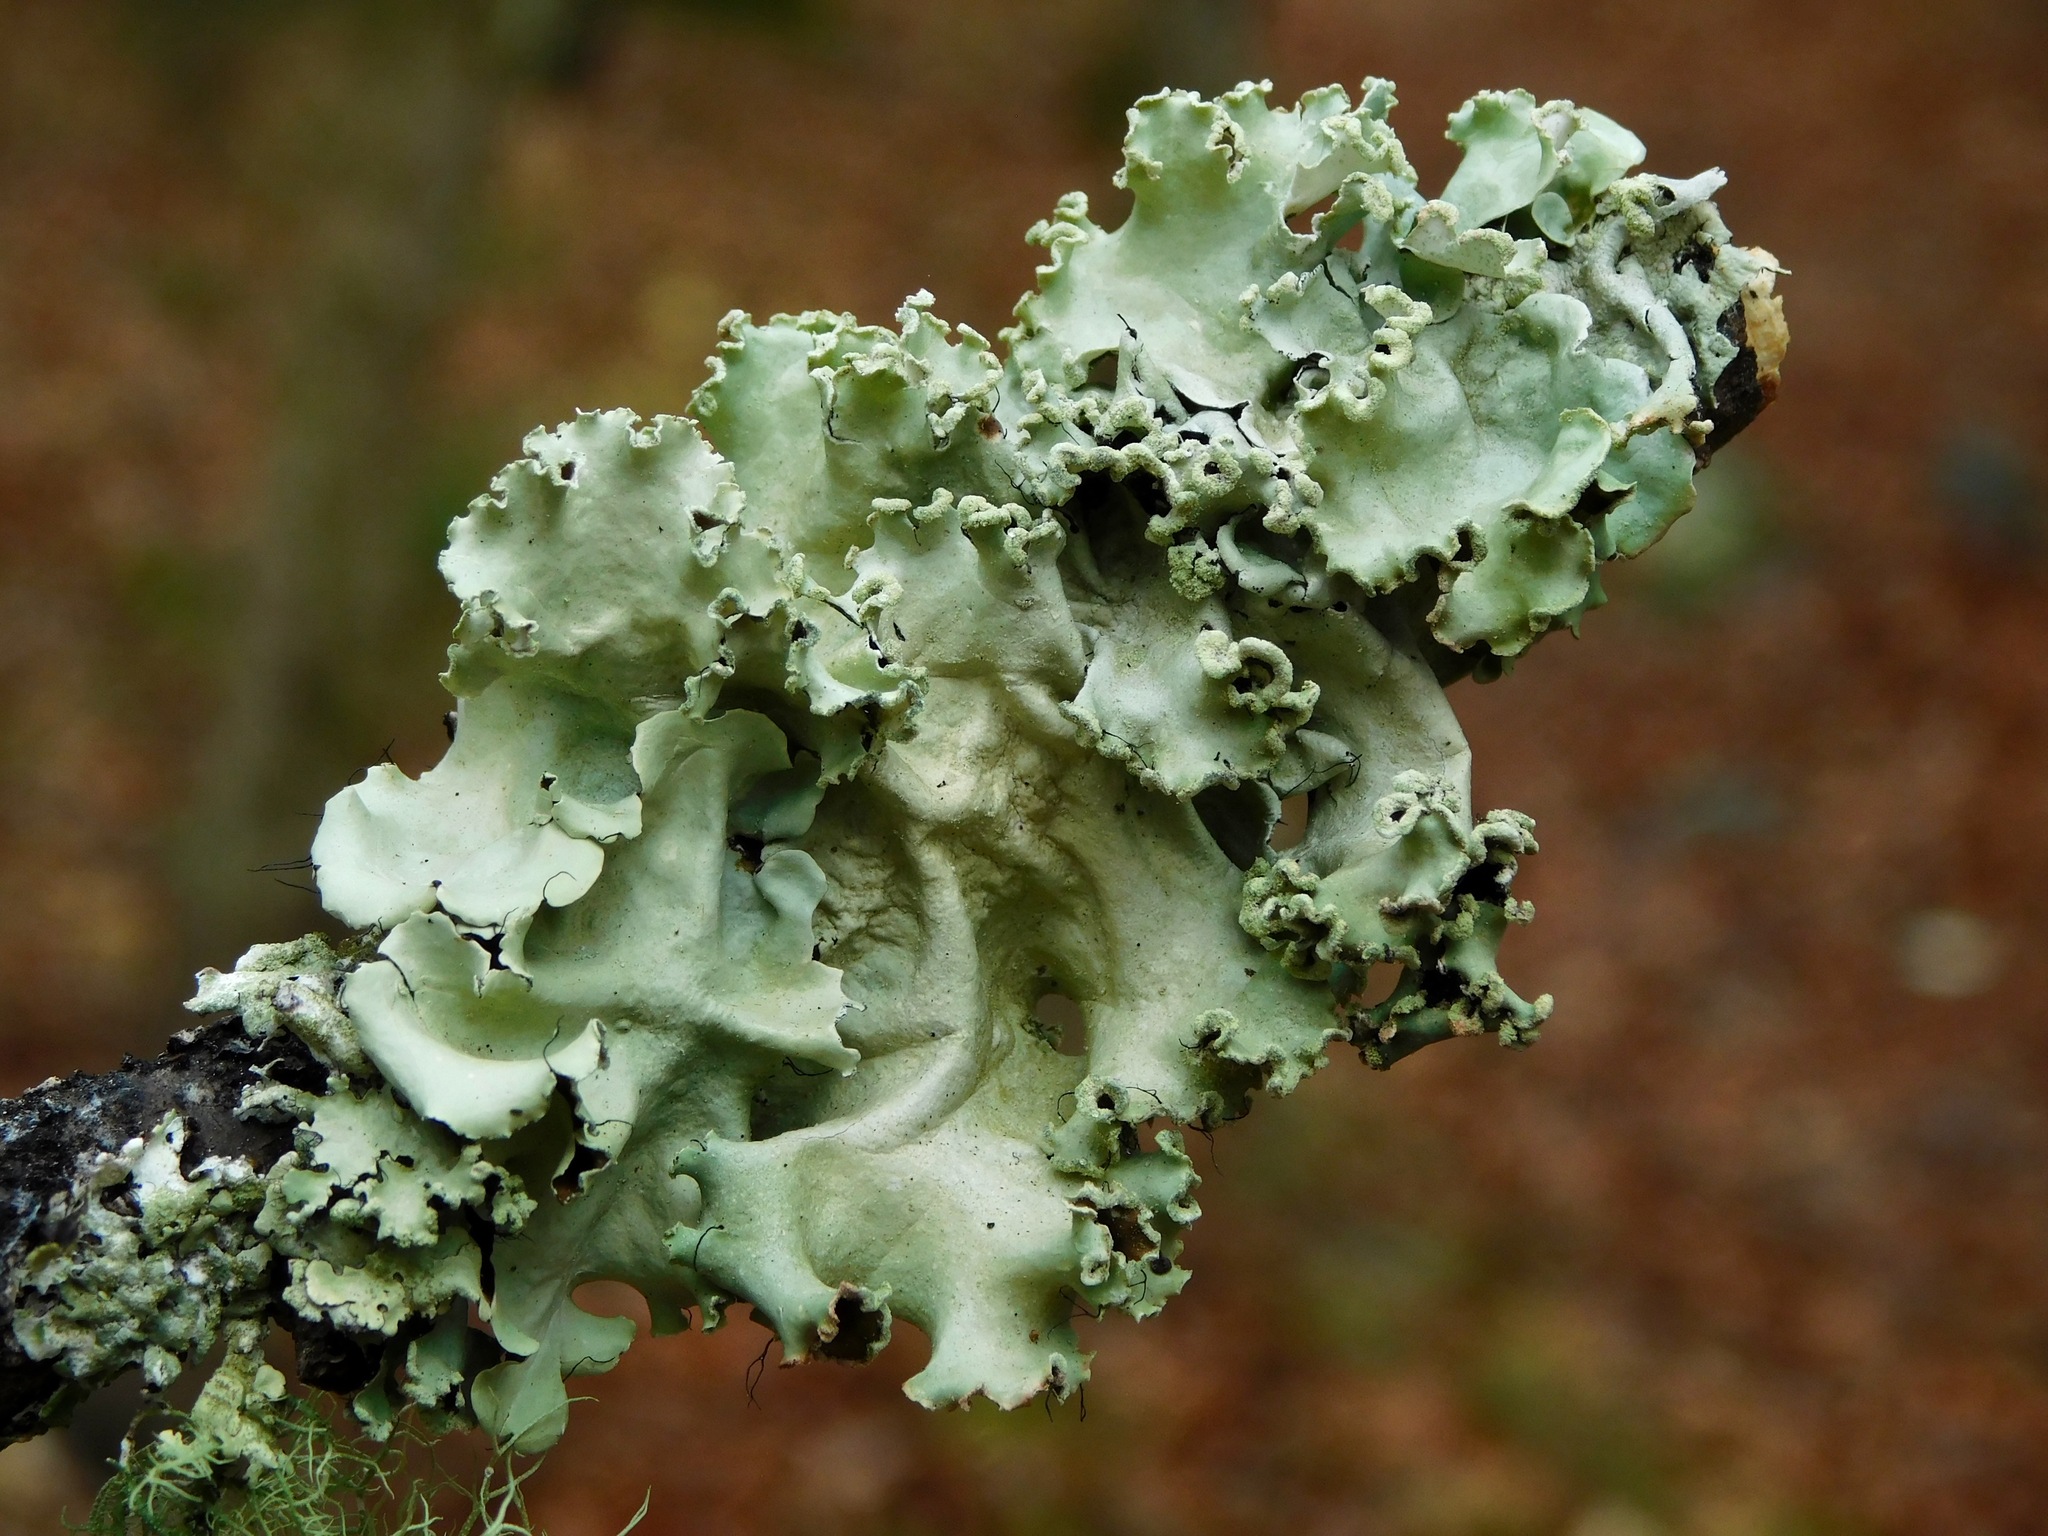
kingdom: Fungi
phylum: Ascomycota
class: Lecanoromycetes
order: Lecanorales
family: Parmeliaceae
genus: Parmotrema
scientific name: Parmotrema gardneri
